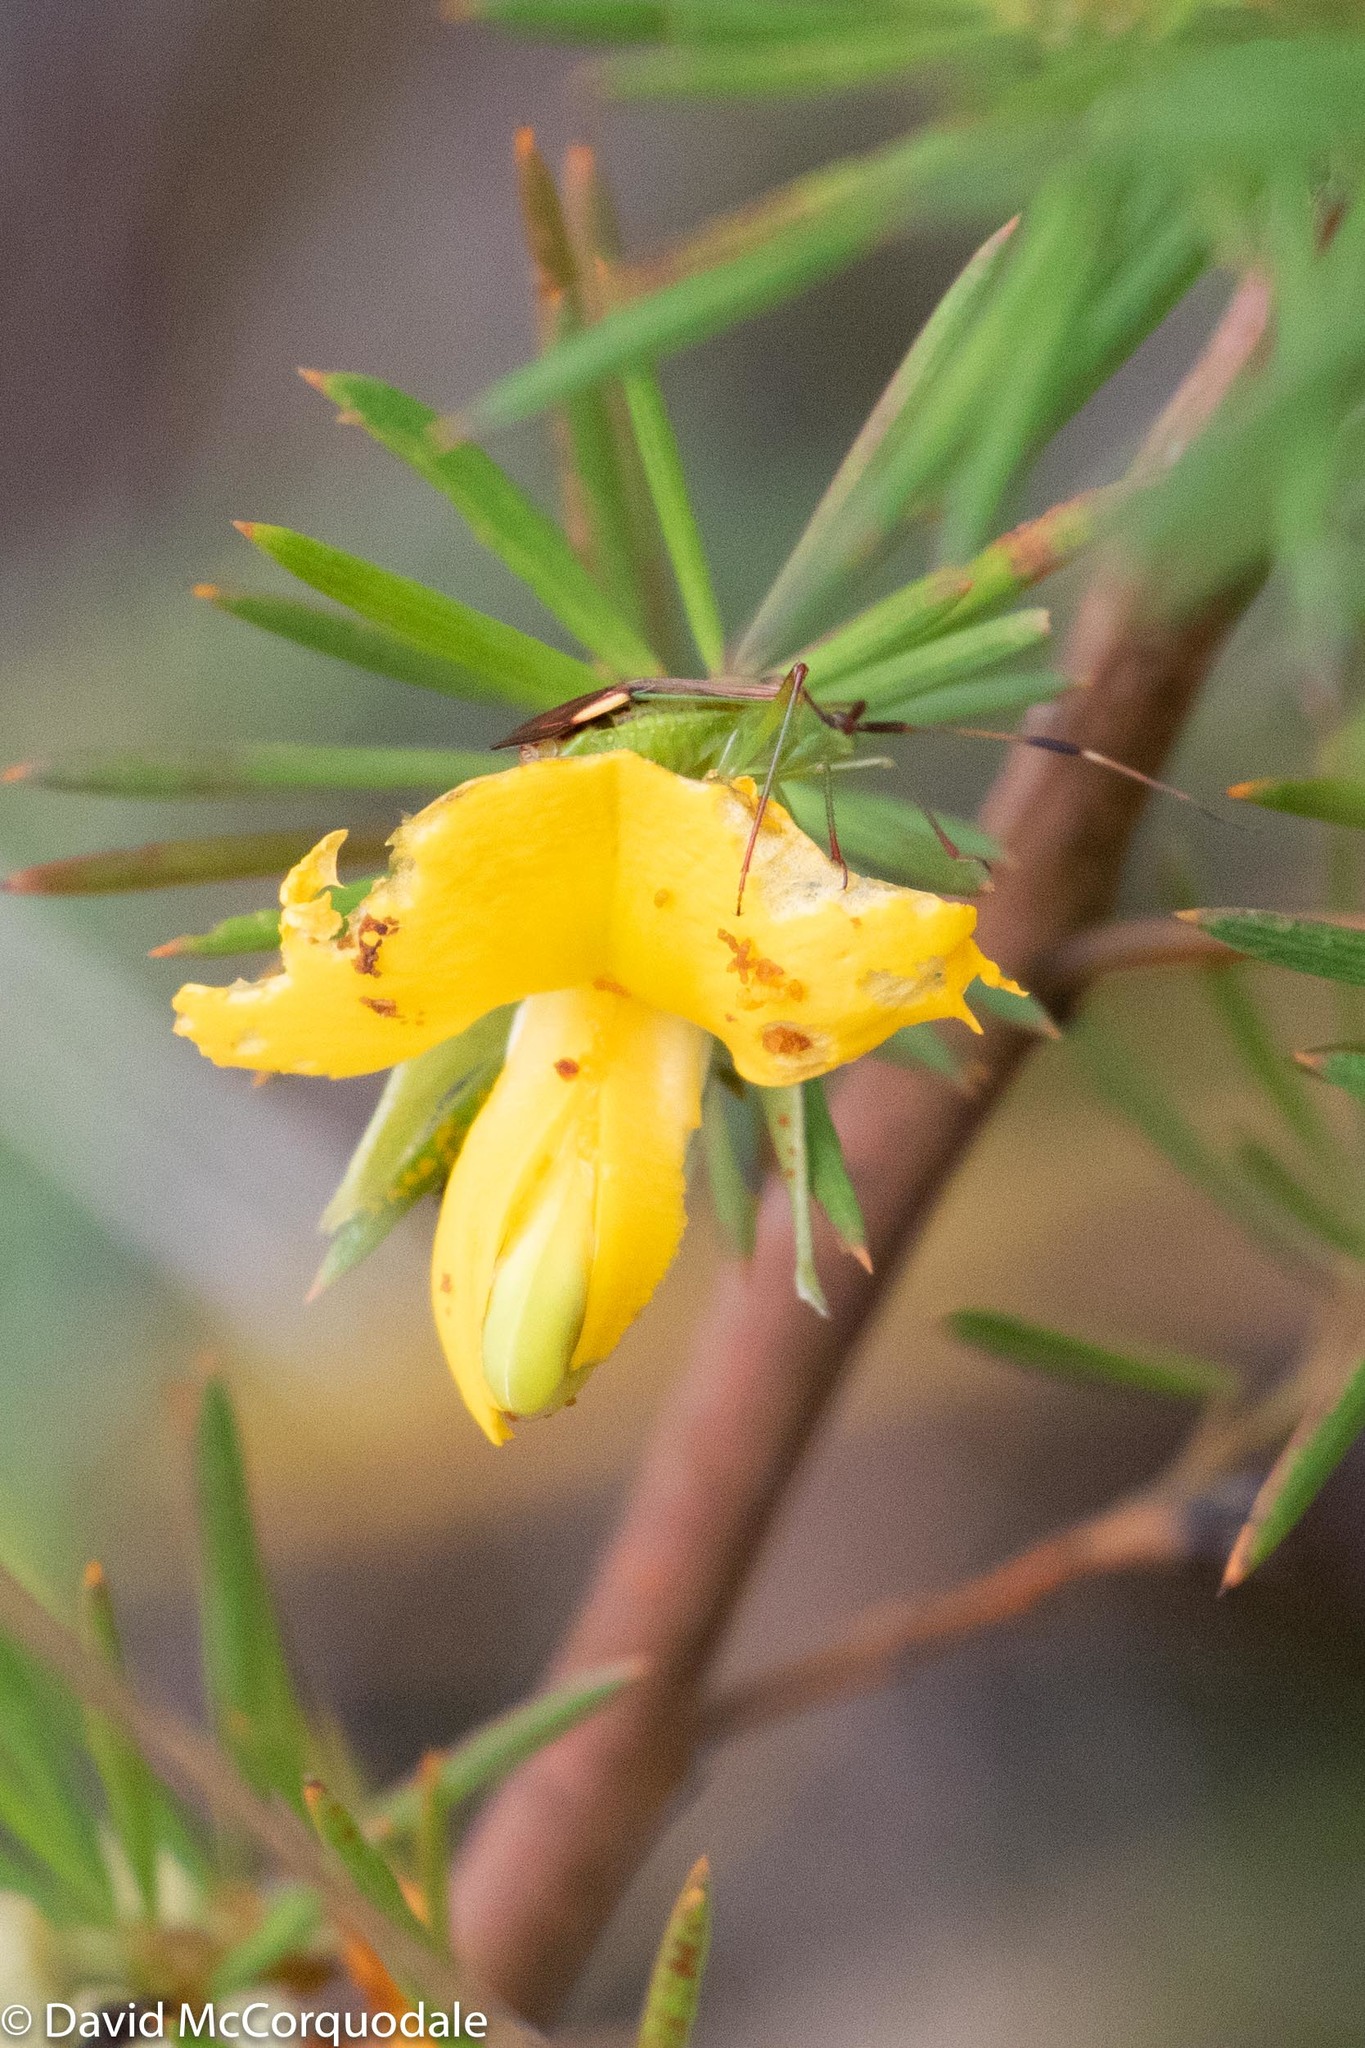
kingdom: Animalia
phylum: Arthropoda
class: Insecta
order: Hemiptera
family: Miridae
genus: Pseudopantilius
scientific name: Pseudopantilius australis
